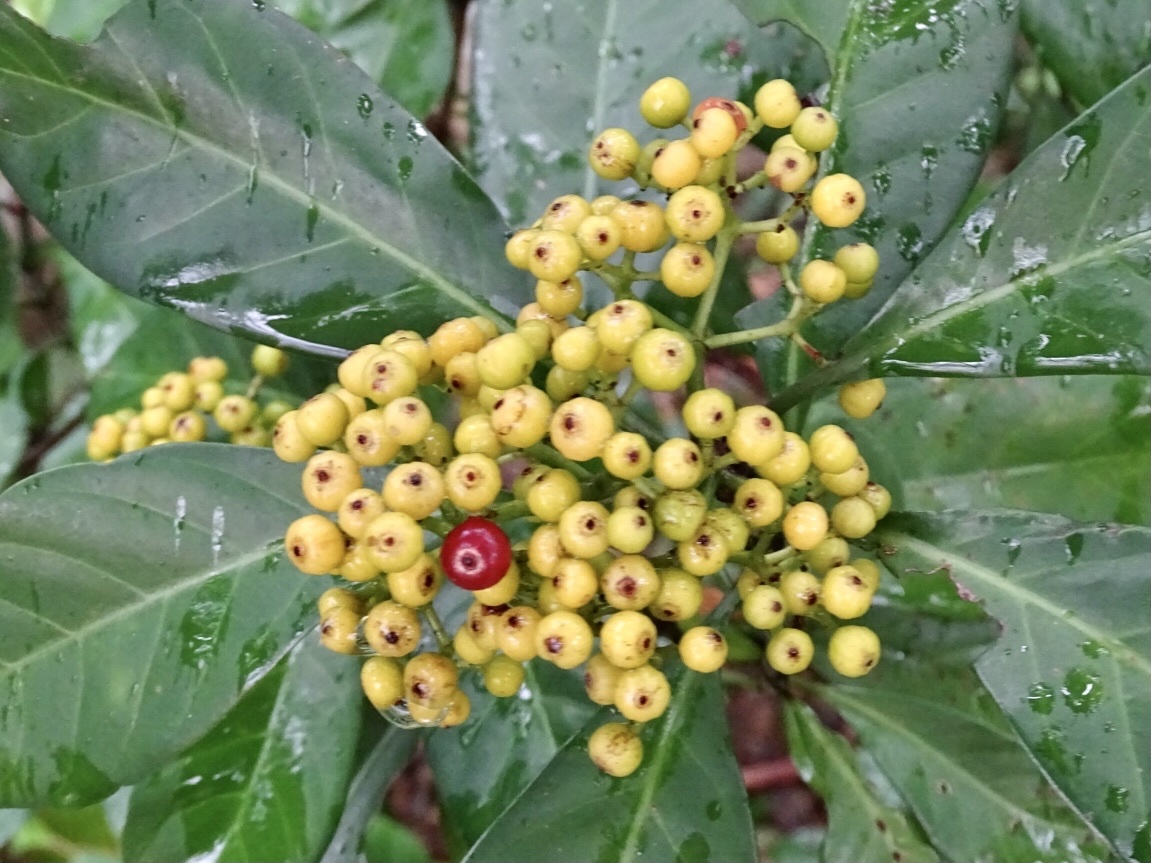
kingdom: Plantae
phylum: Tracheophyta
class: Magnoliopsida
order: Gentianales
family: Rubiaceae
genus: Psychotria
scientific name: Psychotria asiatica
